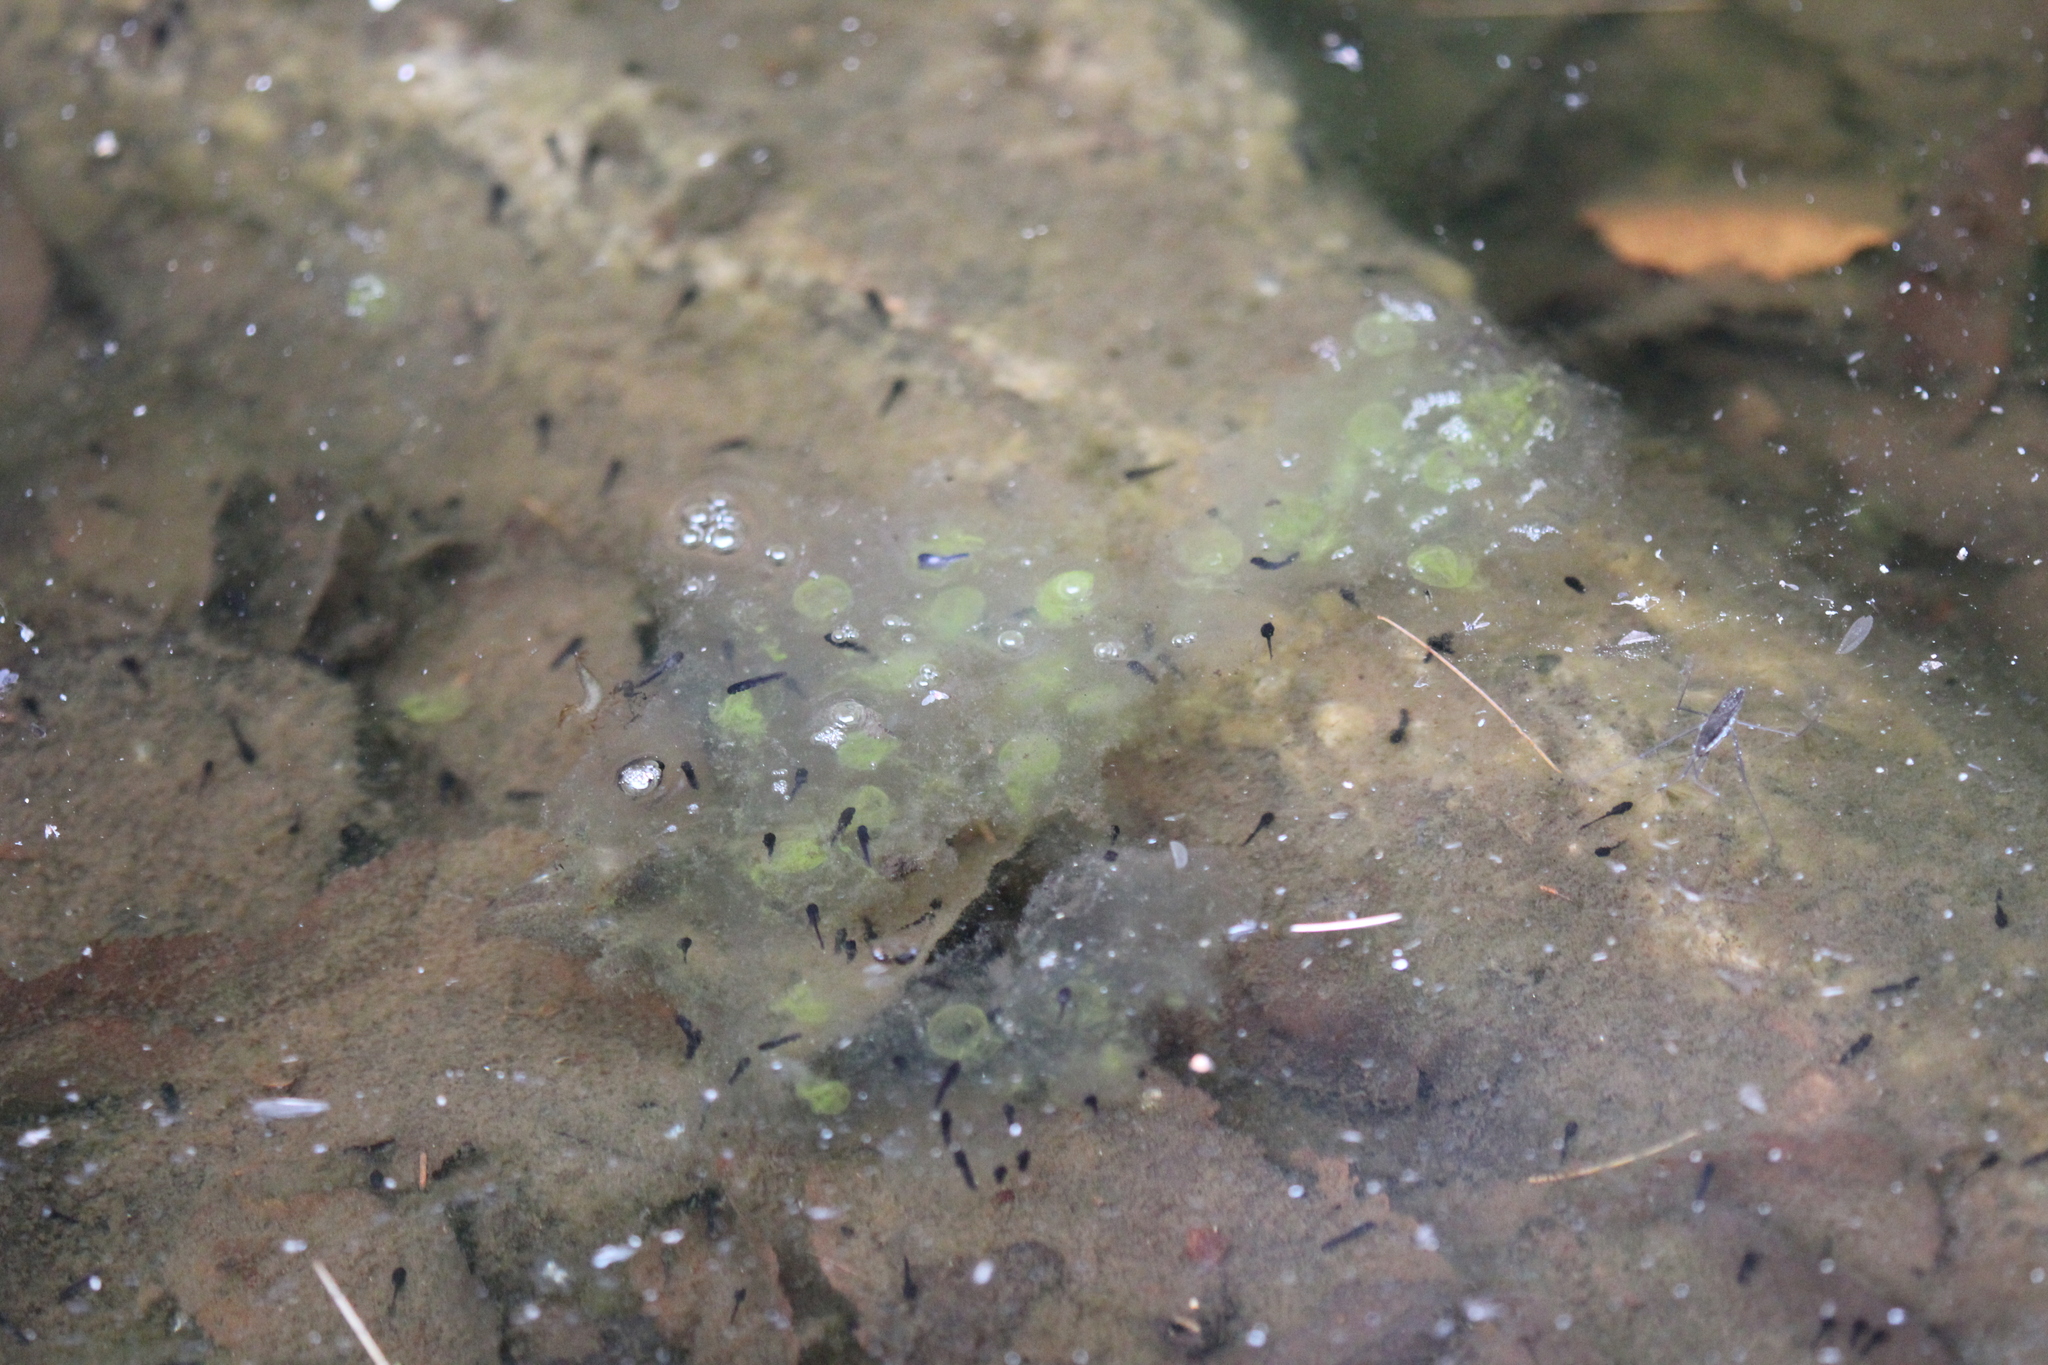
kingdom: Animalia
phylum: Chordata
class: Amphibia
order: Caudata
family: Ambystomatidae
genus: Ambystoma
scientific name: Ambystoma maculatum
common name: Spotted salamander
